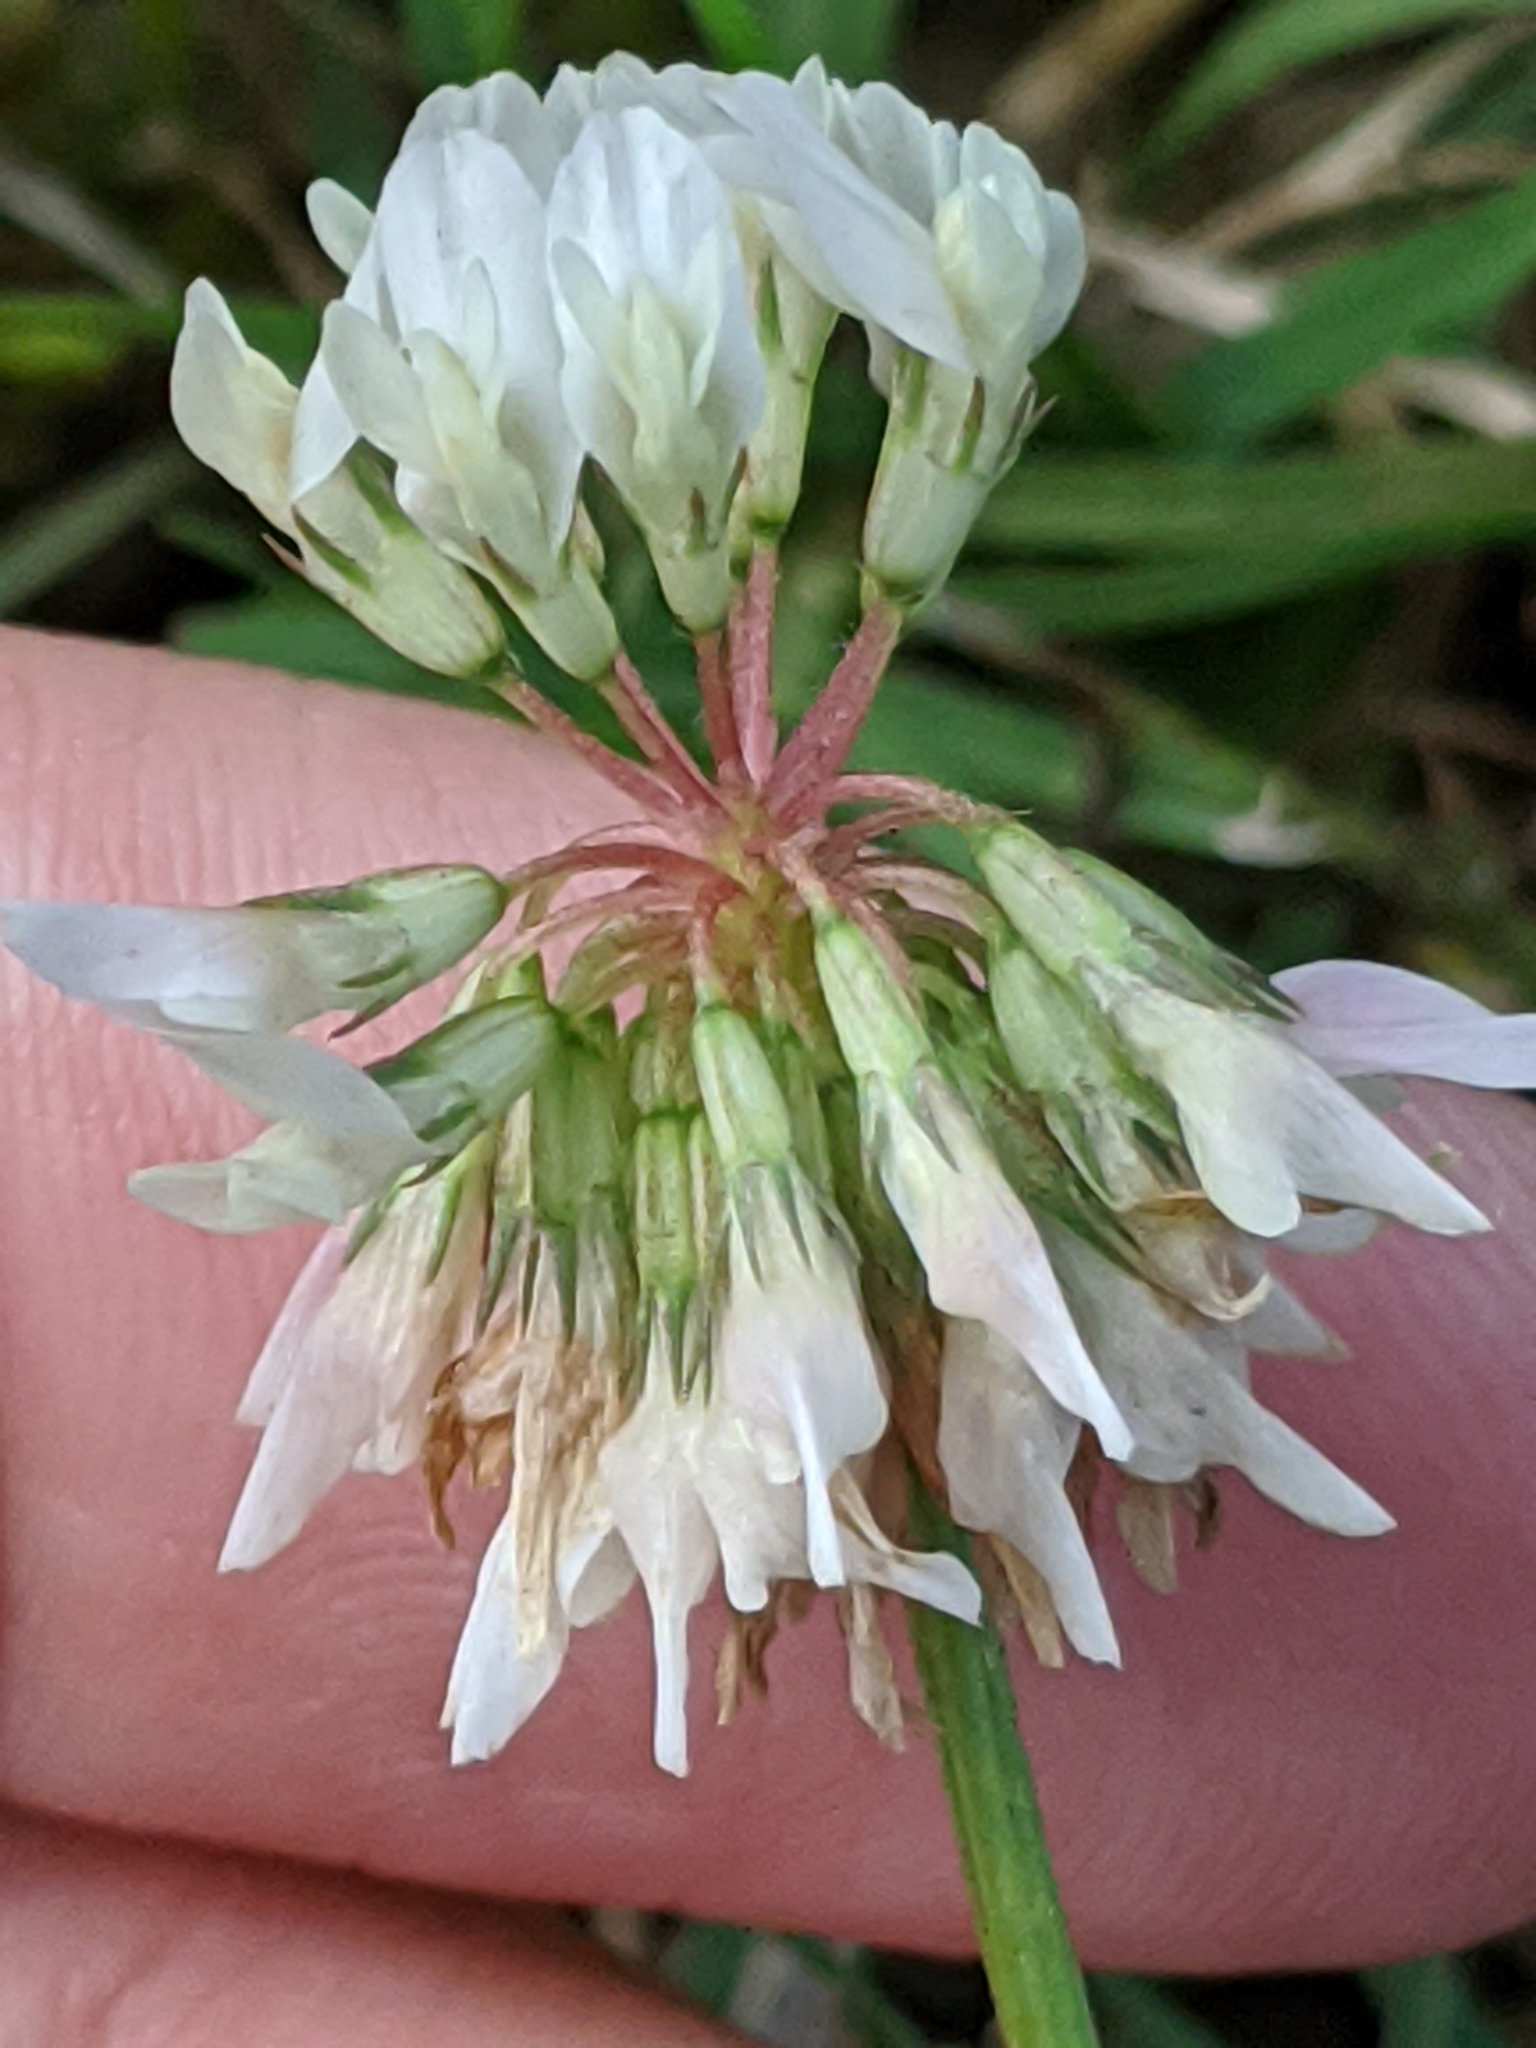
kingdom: Plantae
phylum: Tracheophyta
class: Magnoliopsida
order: Fabales
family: Fabaceae
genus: Trifolium
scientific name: Trifolium repens
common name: White clover
